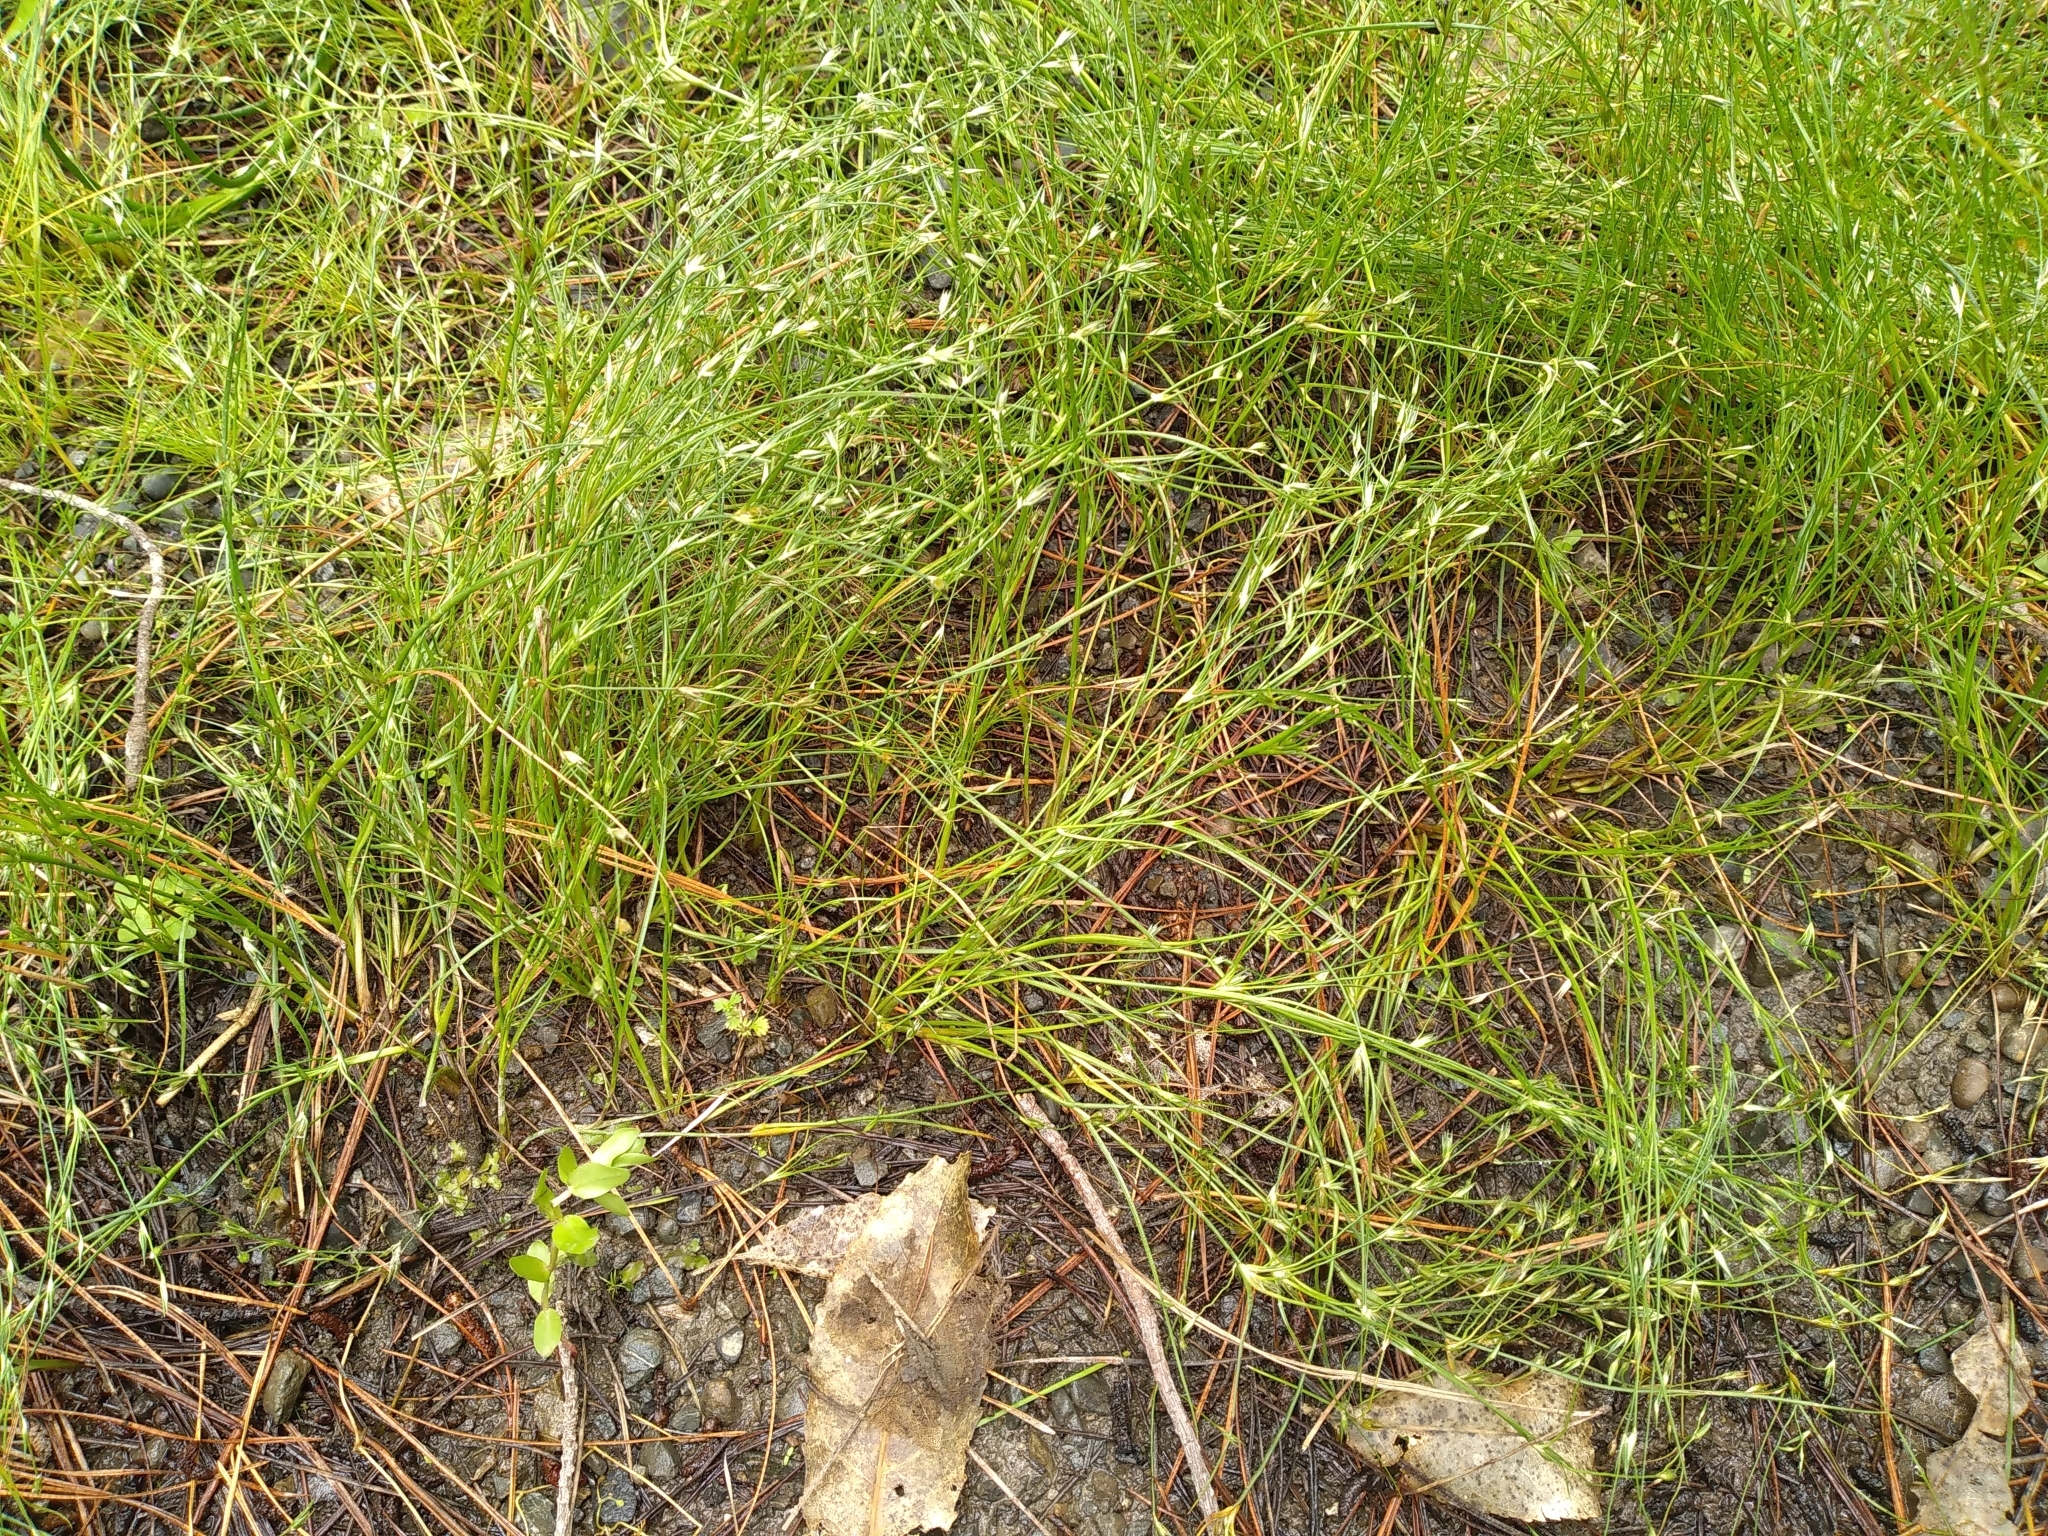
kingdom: Plantae
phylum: Tracheophyta
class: Liliopsida
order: Poales
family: Juncaceae
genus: Juncus
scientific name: Juncus bufonius
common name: Toad rush
